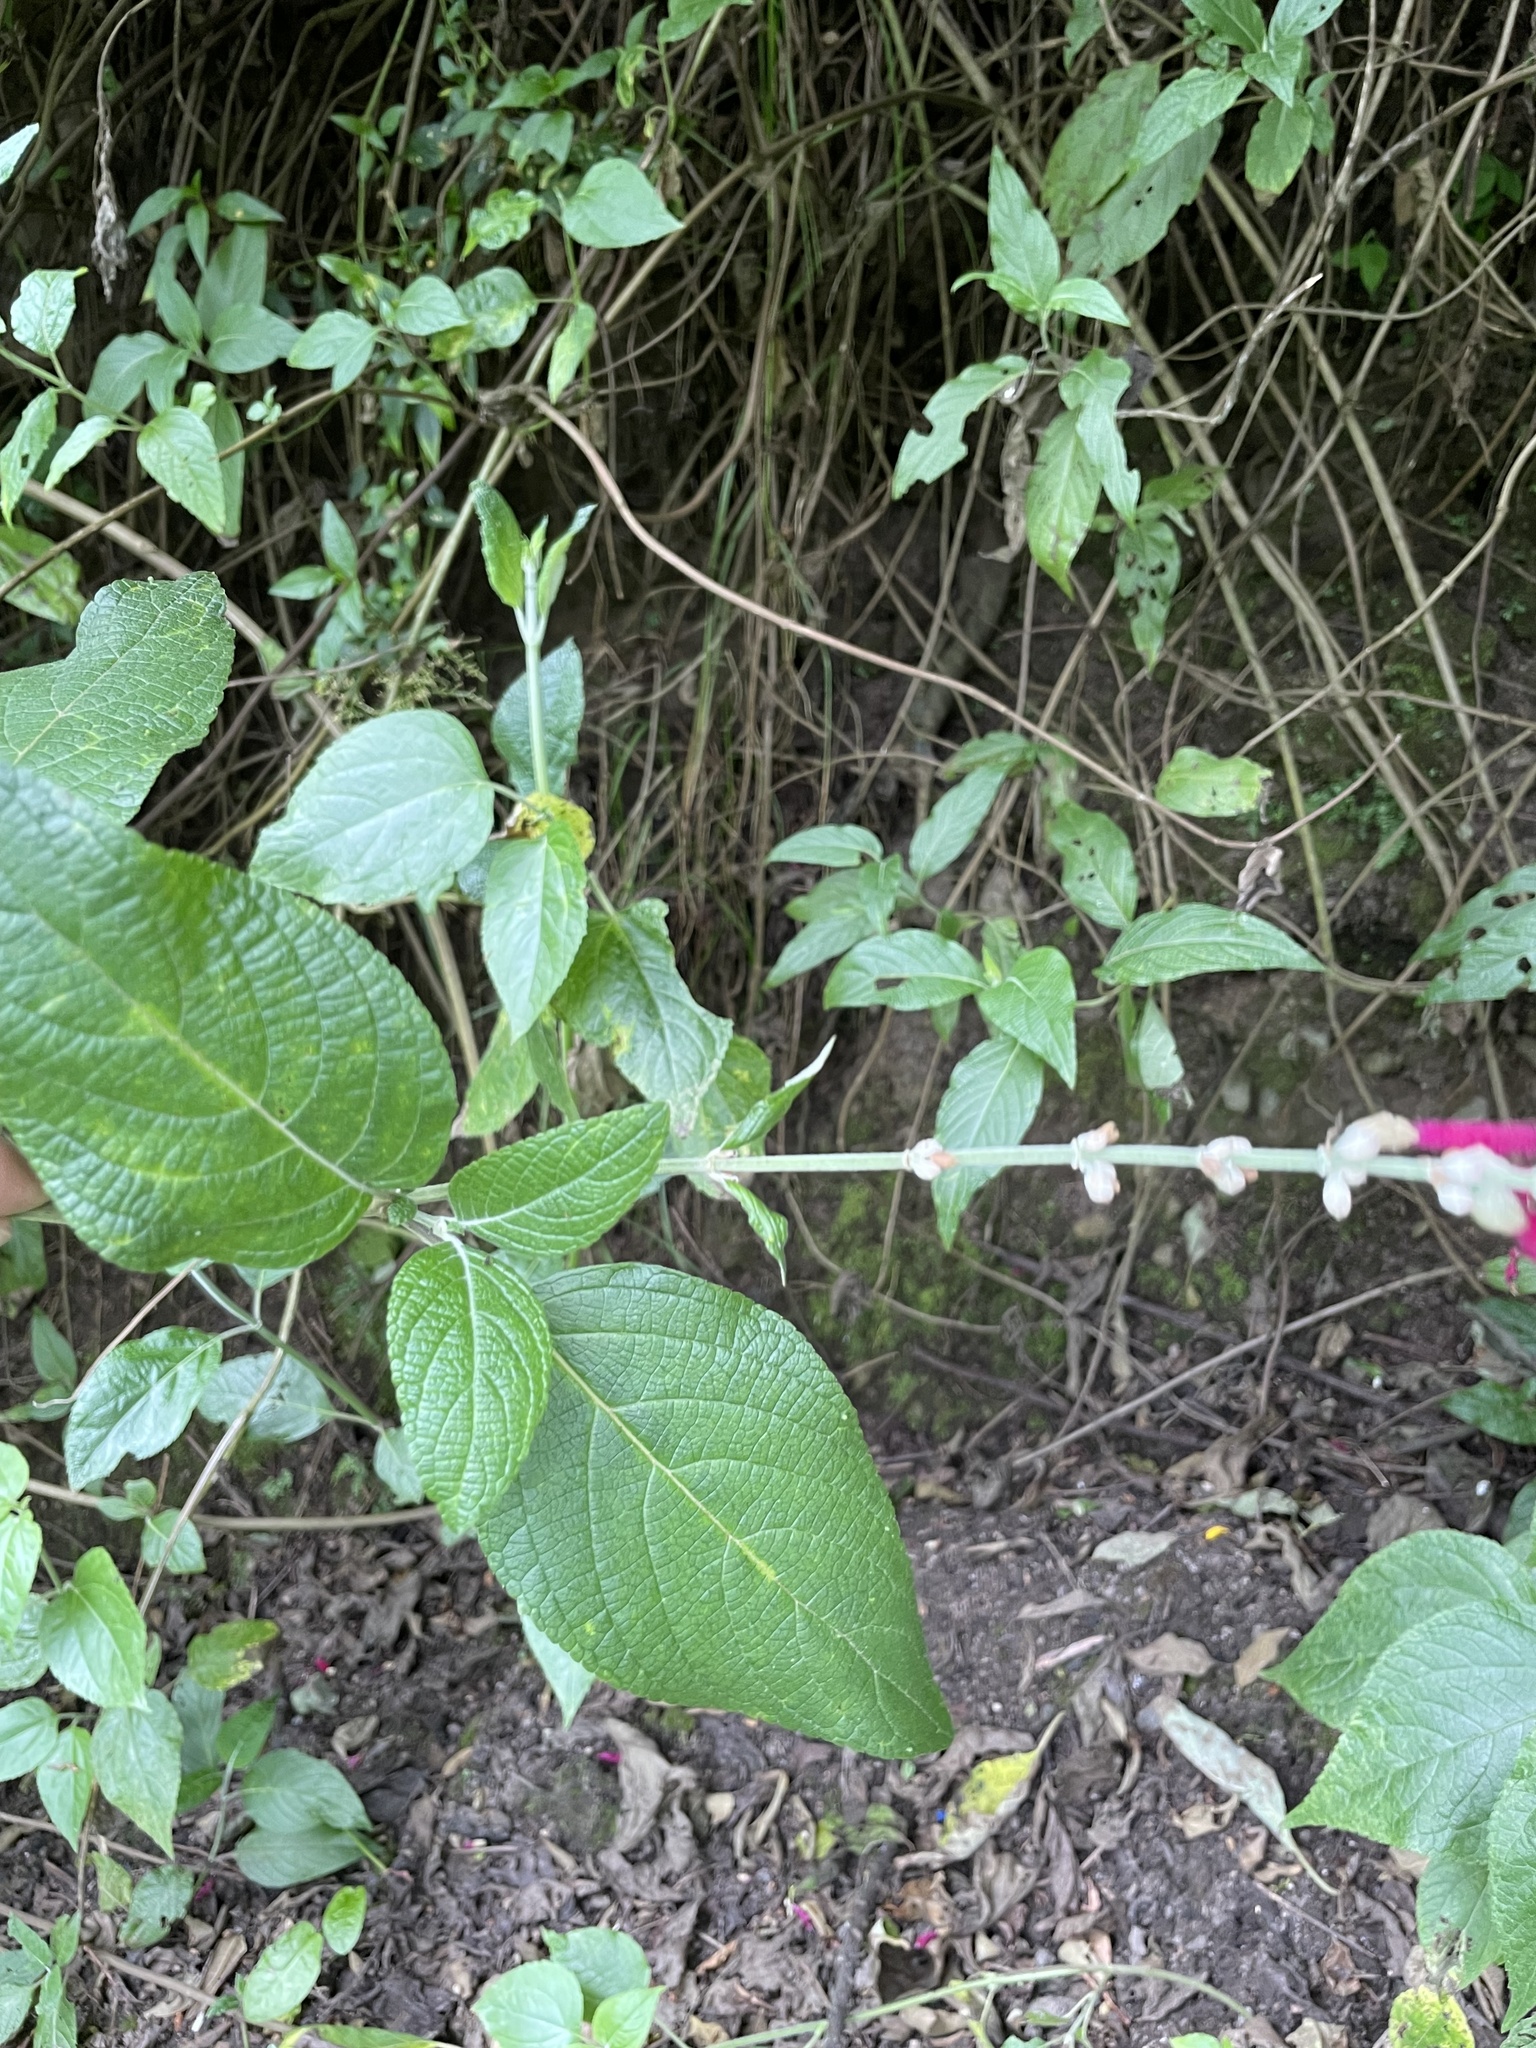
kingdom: Plantae
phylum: Tracheophyta
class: Magnoliopsida
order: Lamiales
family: Lamiaceae
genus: Salvia
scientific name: Salvia tortuosa
